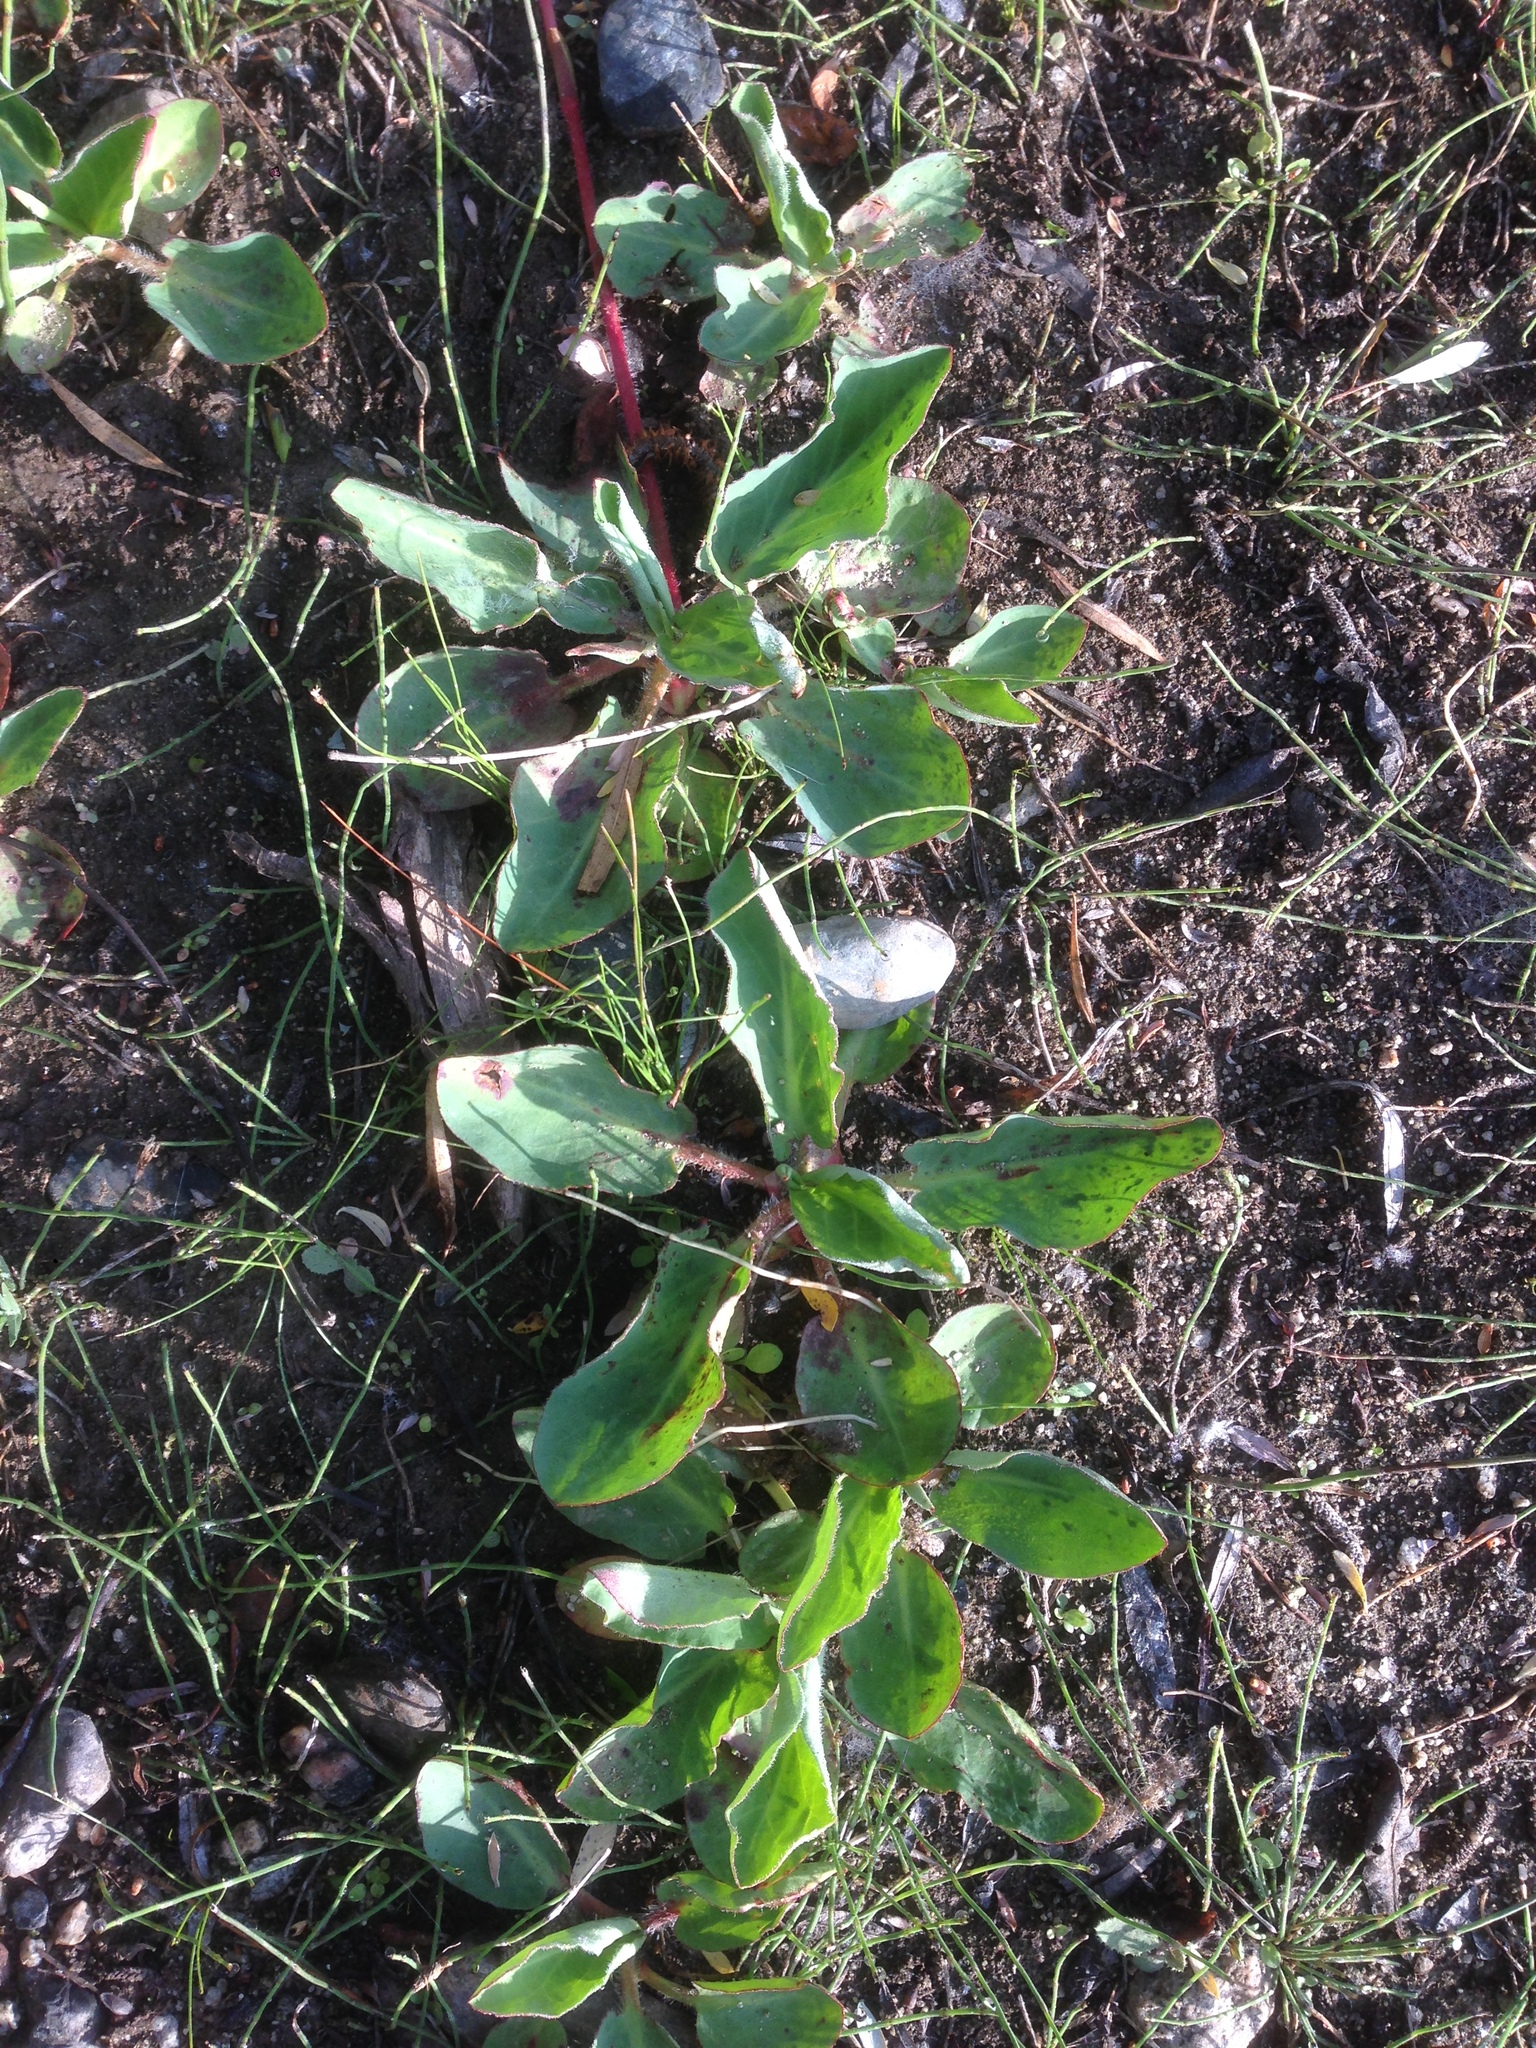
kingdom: Plantae
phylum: Tracheophyta
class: Magnoliopsida
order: Piperales
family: Saururaceae
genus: Anemopsis
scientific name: Anemopsis californica
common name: Apache-beads
